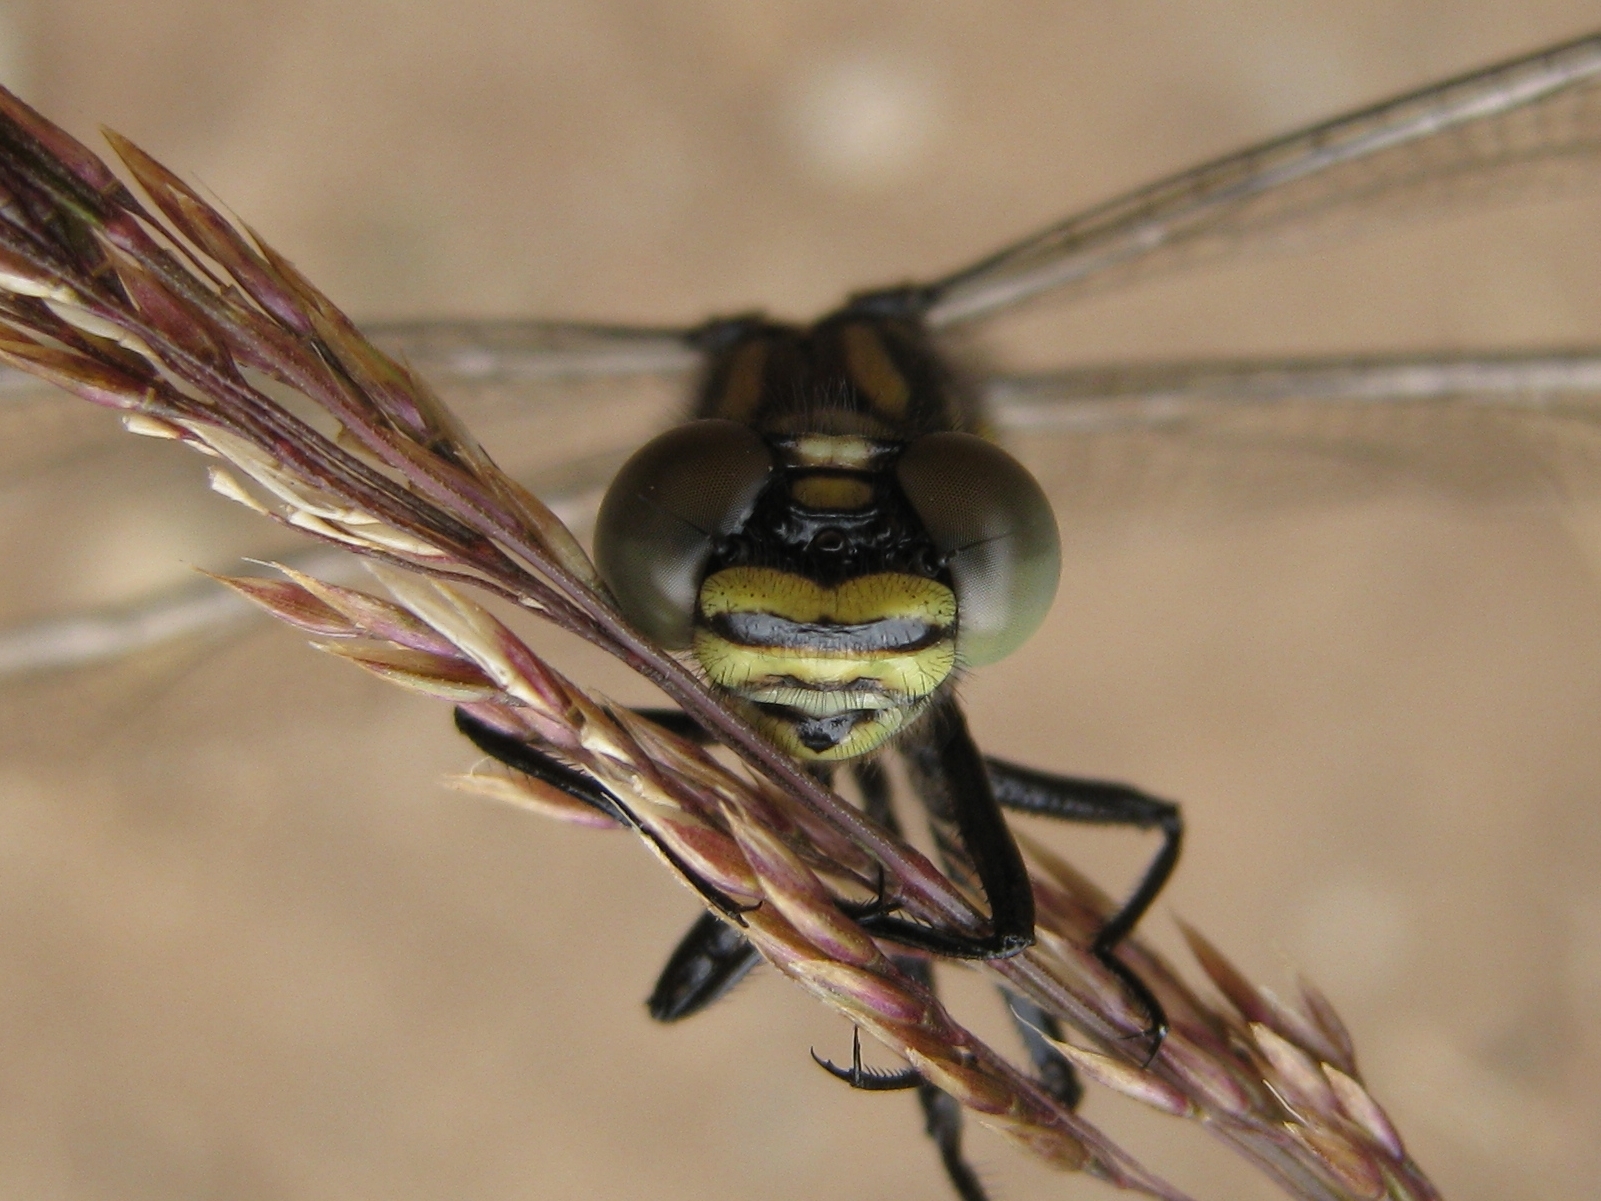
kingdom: Animalia
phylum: Arthropoda
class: Insecta
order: Odonata
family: Gomphidae
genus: Hemigomphus
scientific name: Hemigomphus gouldii
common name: Southern vicetail
